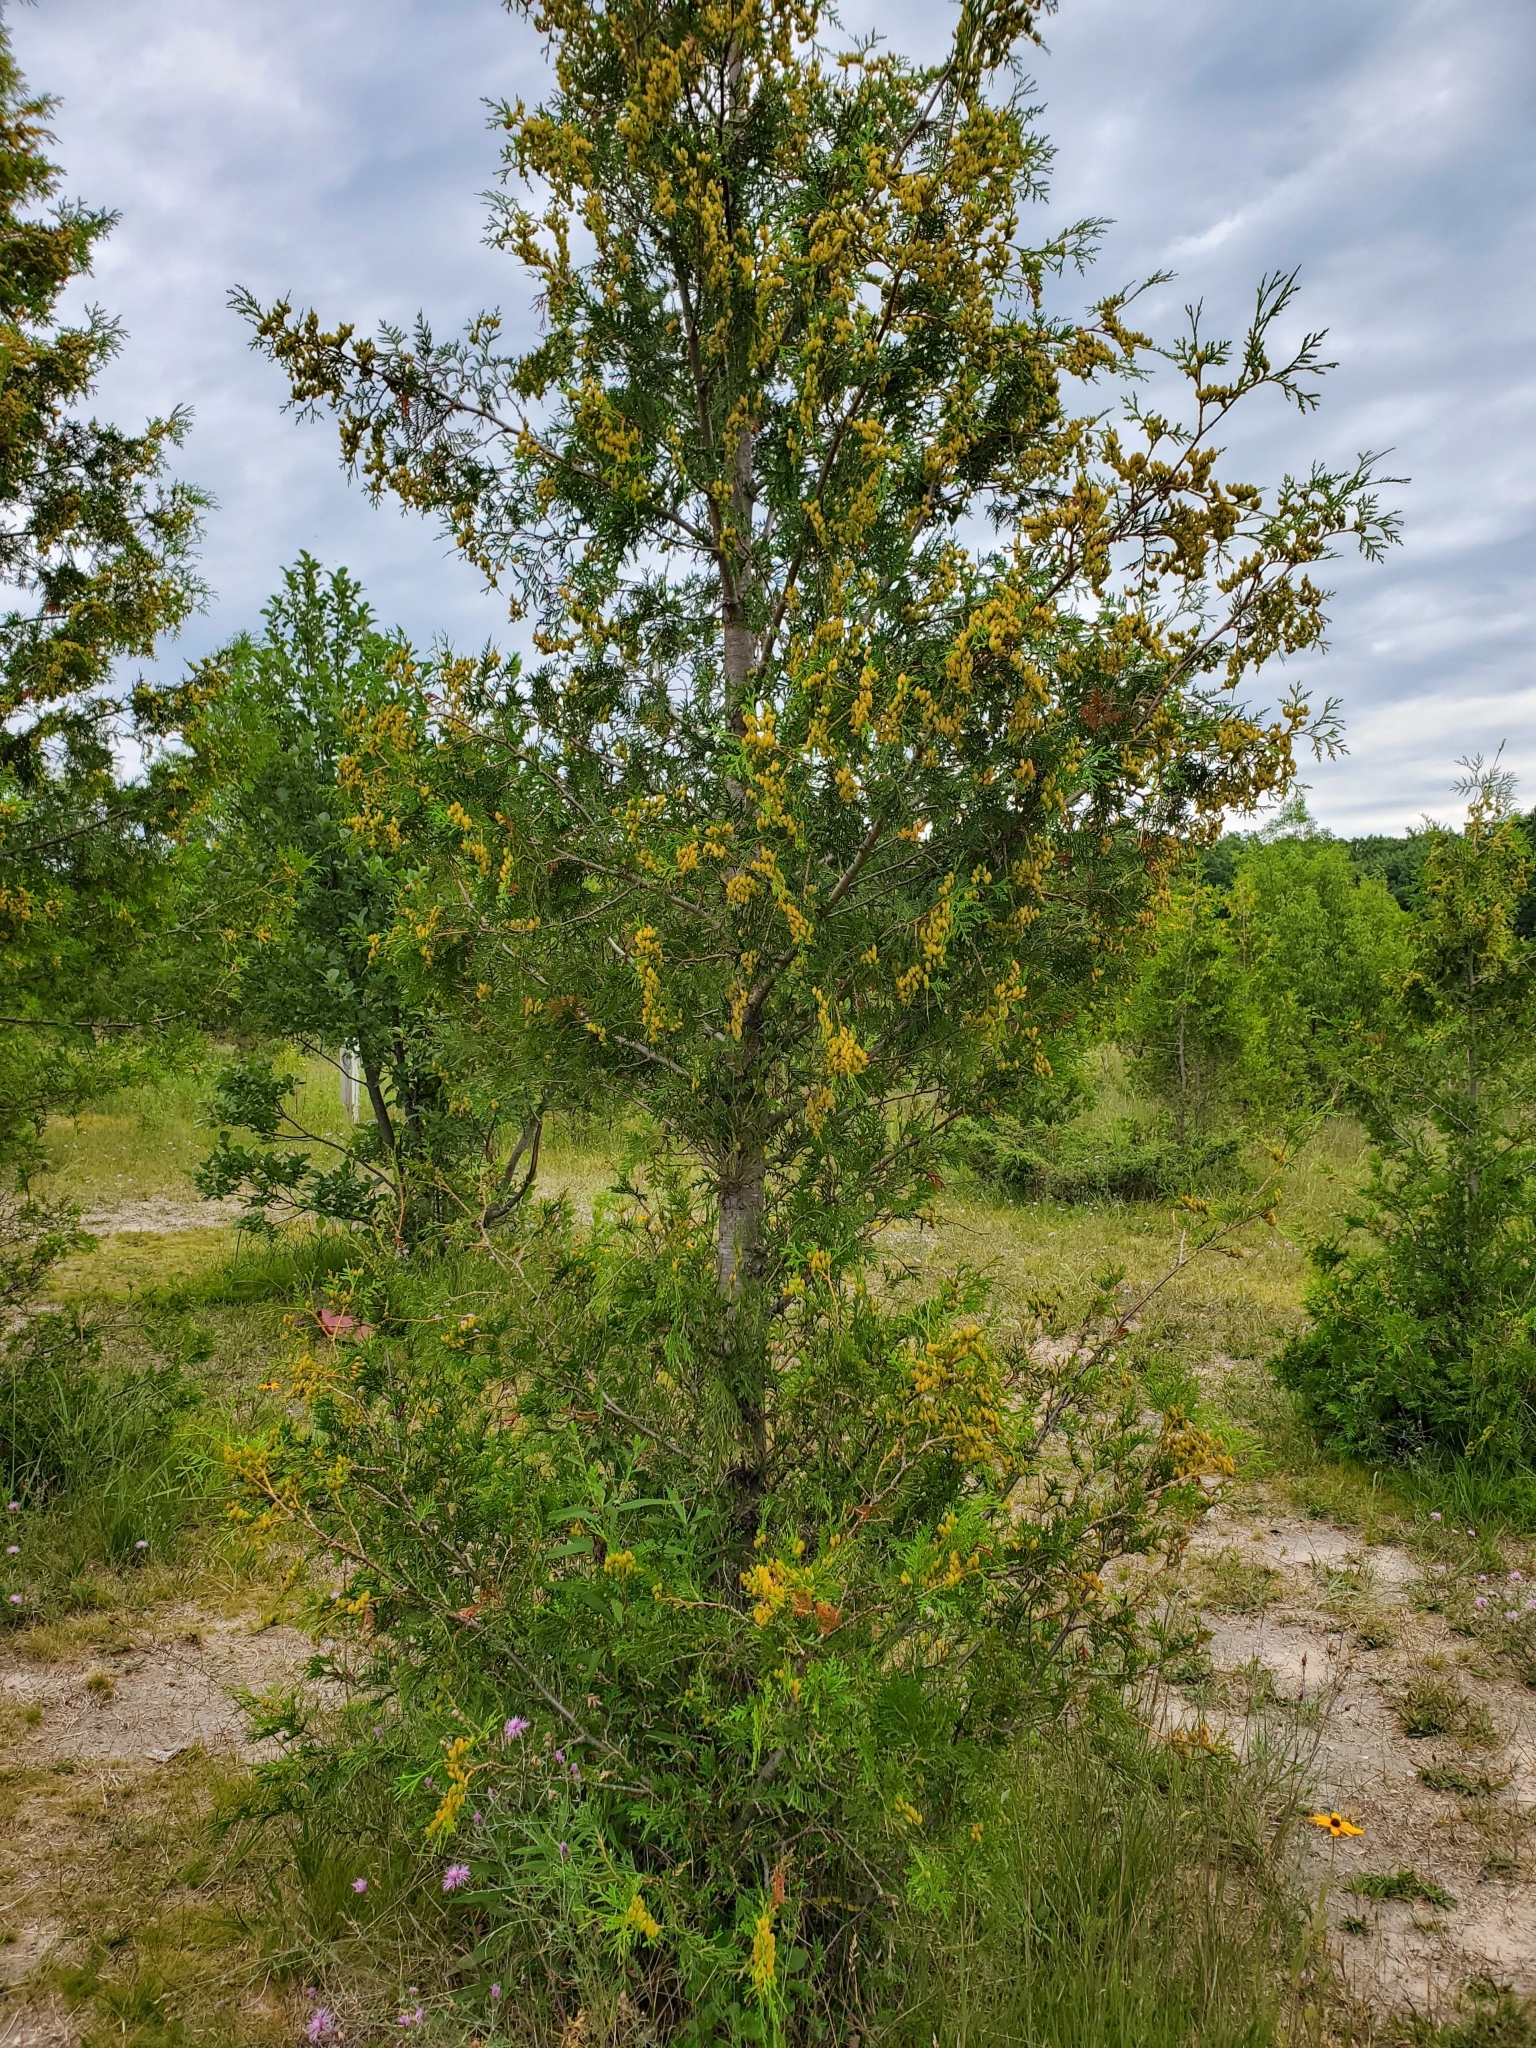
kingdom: Plantae
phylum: Tracheophyta
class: Pinopsida
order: Pinales
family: Cupressaceae
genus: Thuja
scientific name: Thuja occidentalis
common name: Northern white-cedar
